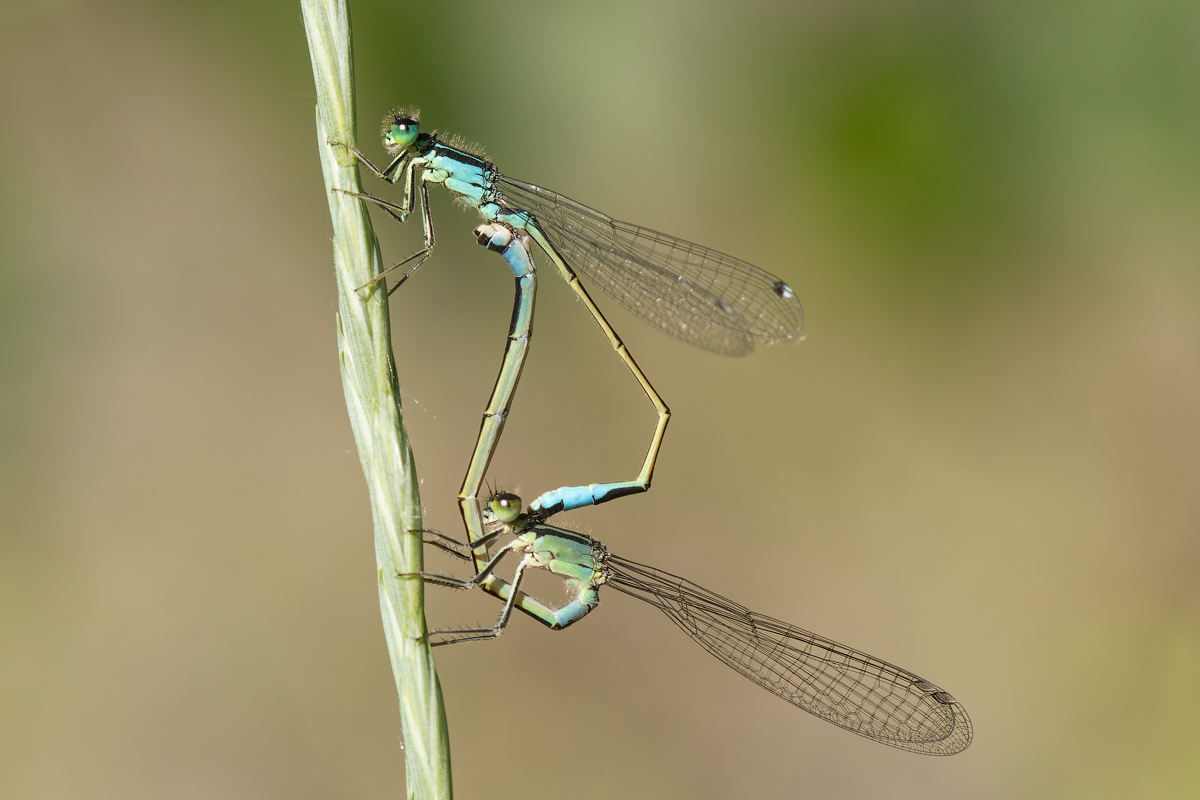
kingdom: Animalia
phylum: Arthropoda
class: Insecta
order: Odonata
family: Coenagrionidae
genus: Ischnura
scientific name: Ischnura elegans
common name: Blue-tailed damselfly
